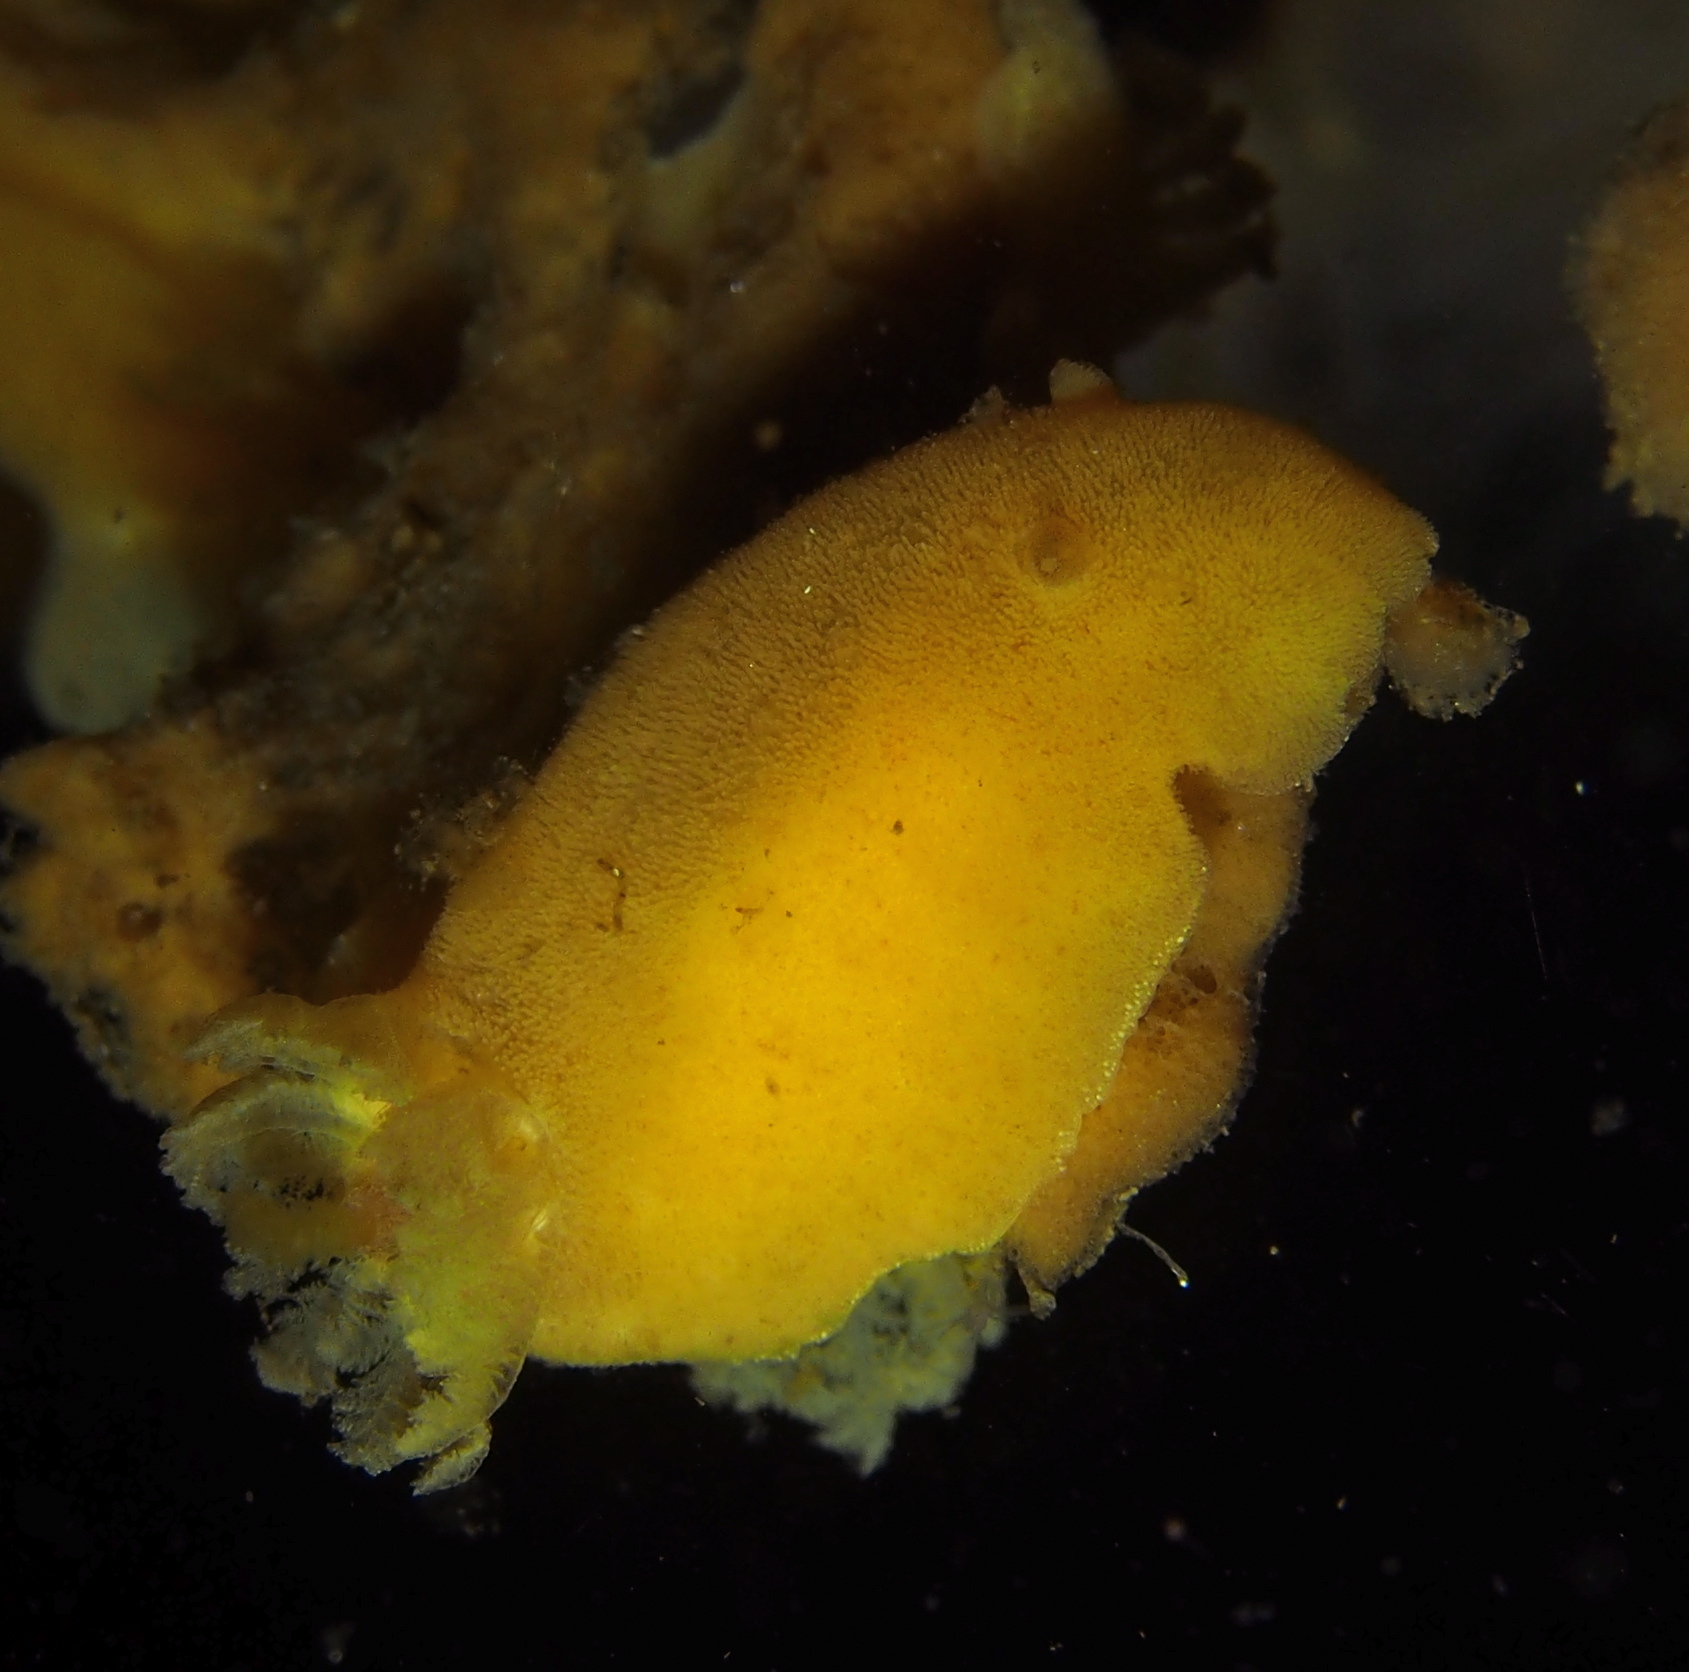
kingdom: Animalia
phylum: Mollusca
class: Gastropoda
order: Nudibranchia
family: Discodorididae
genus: Jorunna
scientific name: Jorunna tomentosa
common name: Grey sea slug
